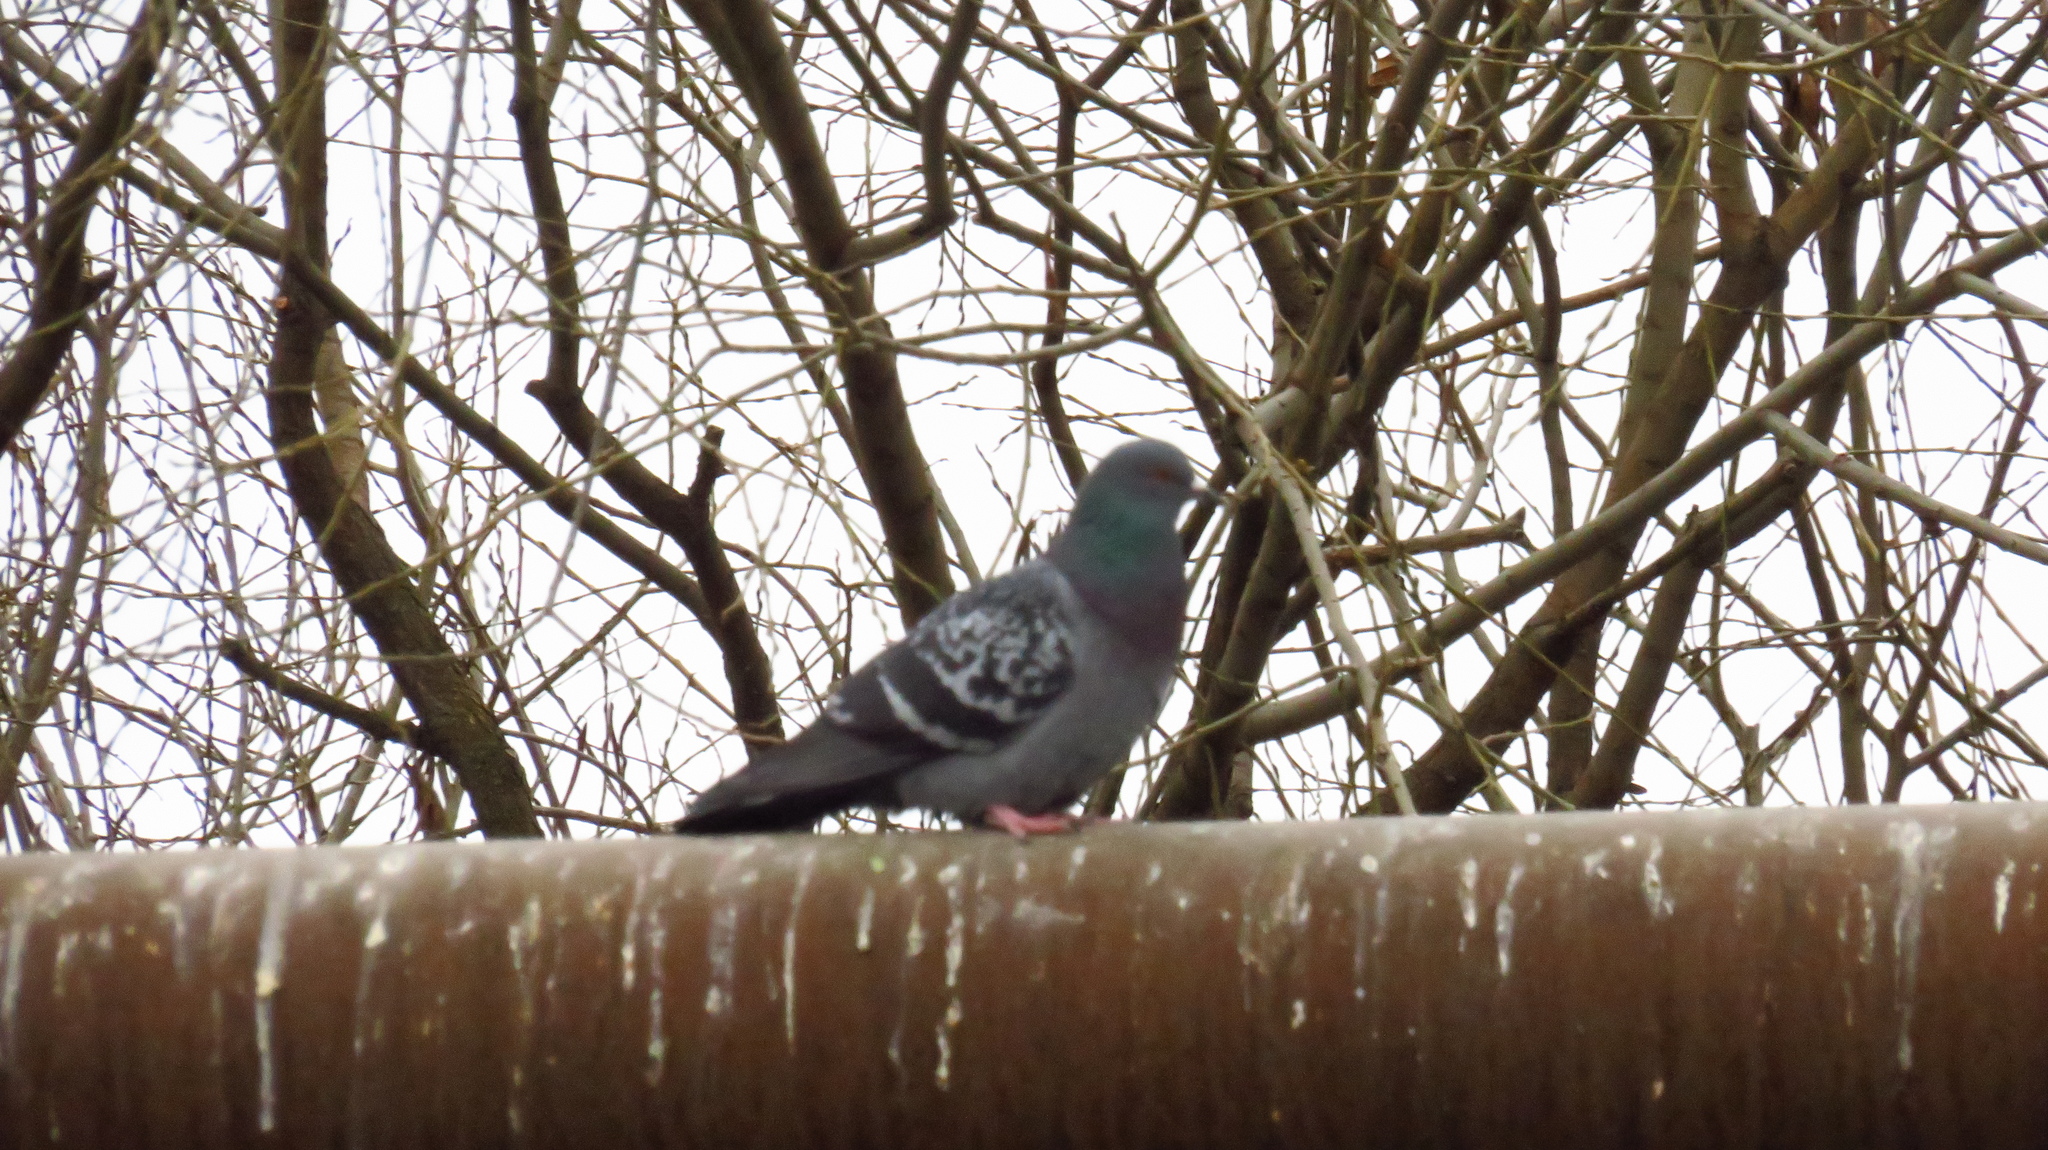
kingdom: Animalia
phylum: Chordata
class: Aves
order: Columbiformes
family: Columbidae
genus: Columba
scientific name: Columba livia
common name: Rock pigeon
